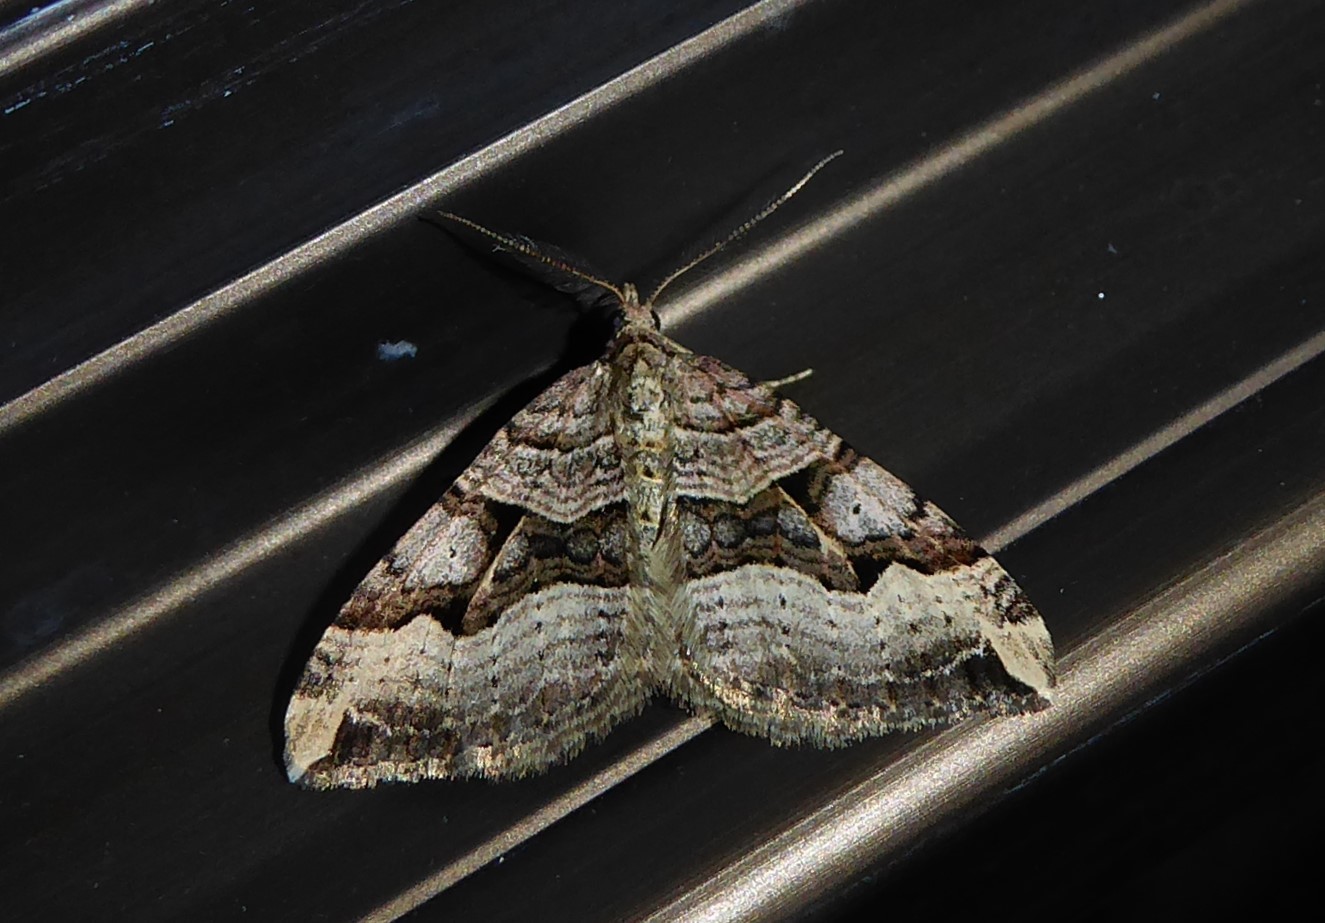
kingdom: Animalia
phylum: Arthropoda
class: Insecta
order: Lepidoptera
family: Geometridae
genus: Xanthorhoe
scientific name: Xanthorhoe semifissata
